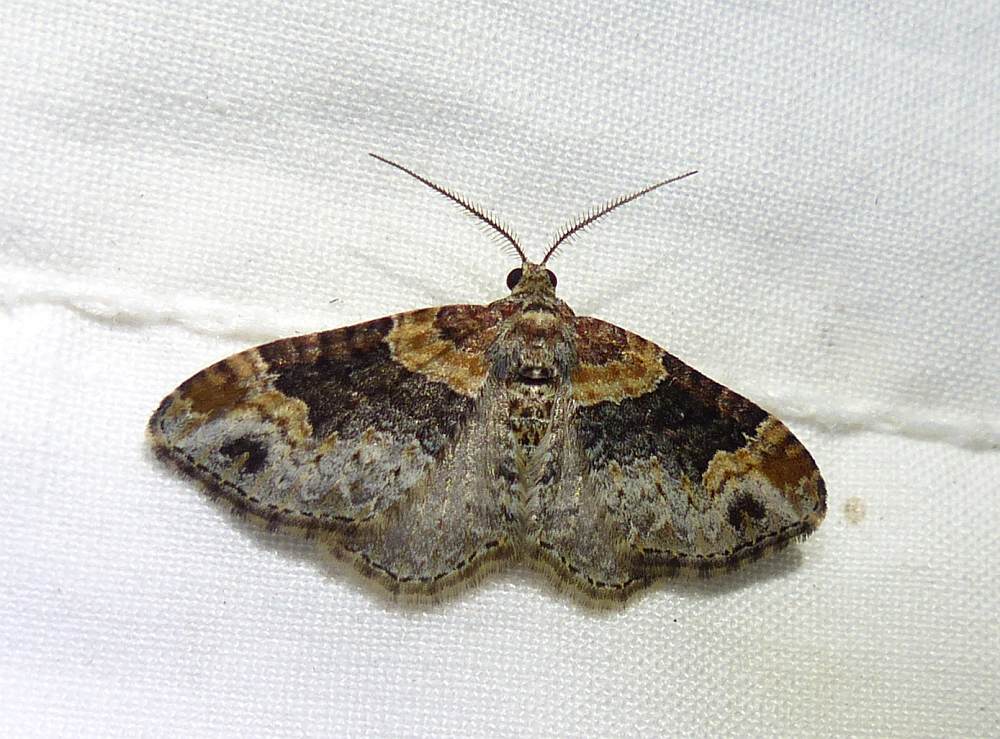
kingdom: Animalia
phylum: Arthropoda
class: Insecta
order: Lepidoptera
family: Geometridae
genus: Xanthorhoe
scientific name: Xanthorhoe ferrugata
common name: Dark-barred twin-spot carpet
